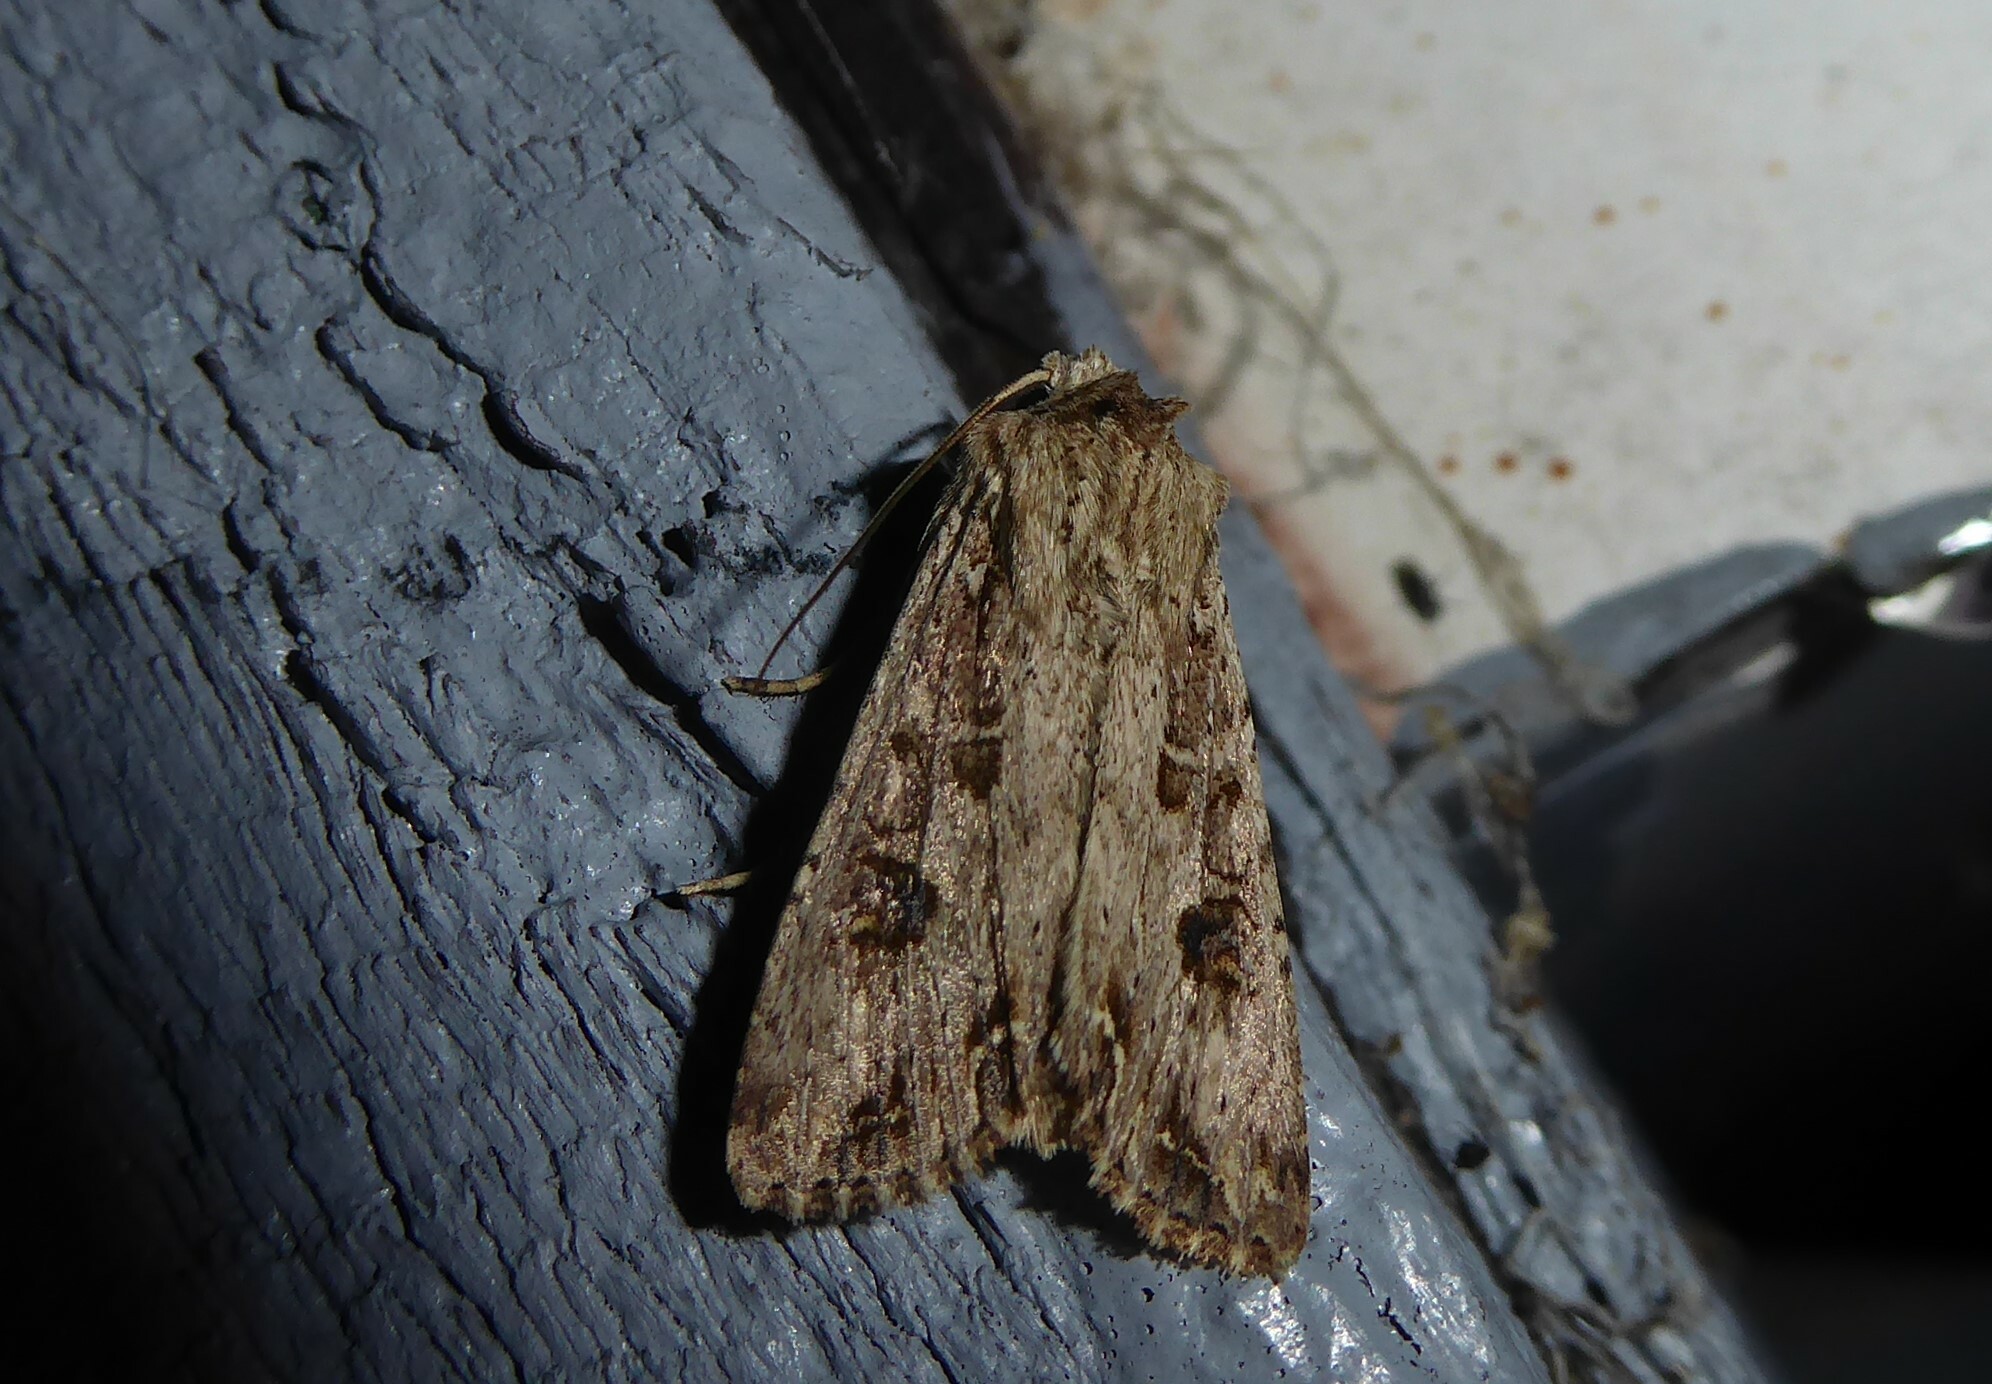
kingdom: Animalia
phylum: Arthropoda
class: Insecta
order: Lepidoptera
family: Noctuidae
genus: Ichneutica
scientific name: Ichneutica lignana
